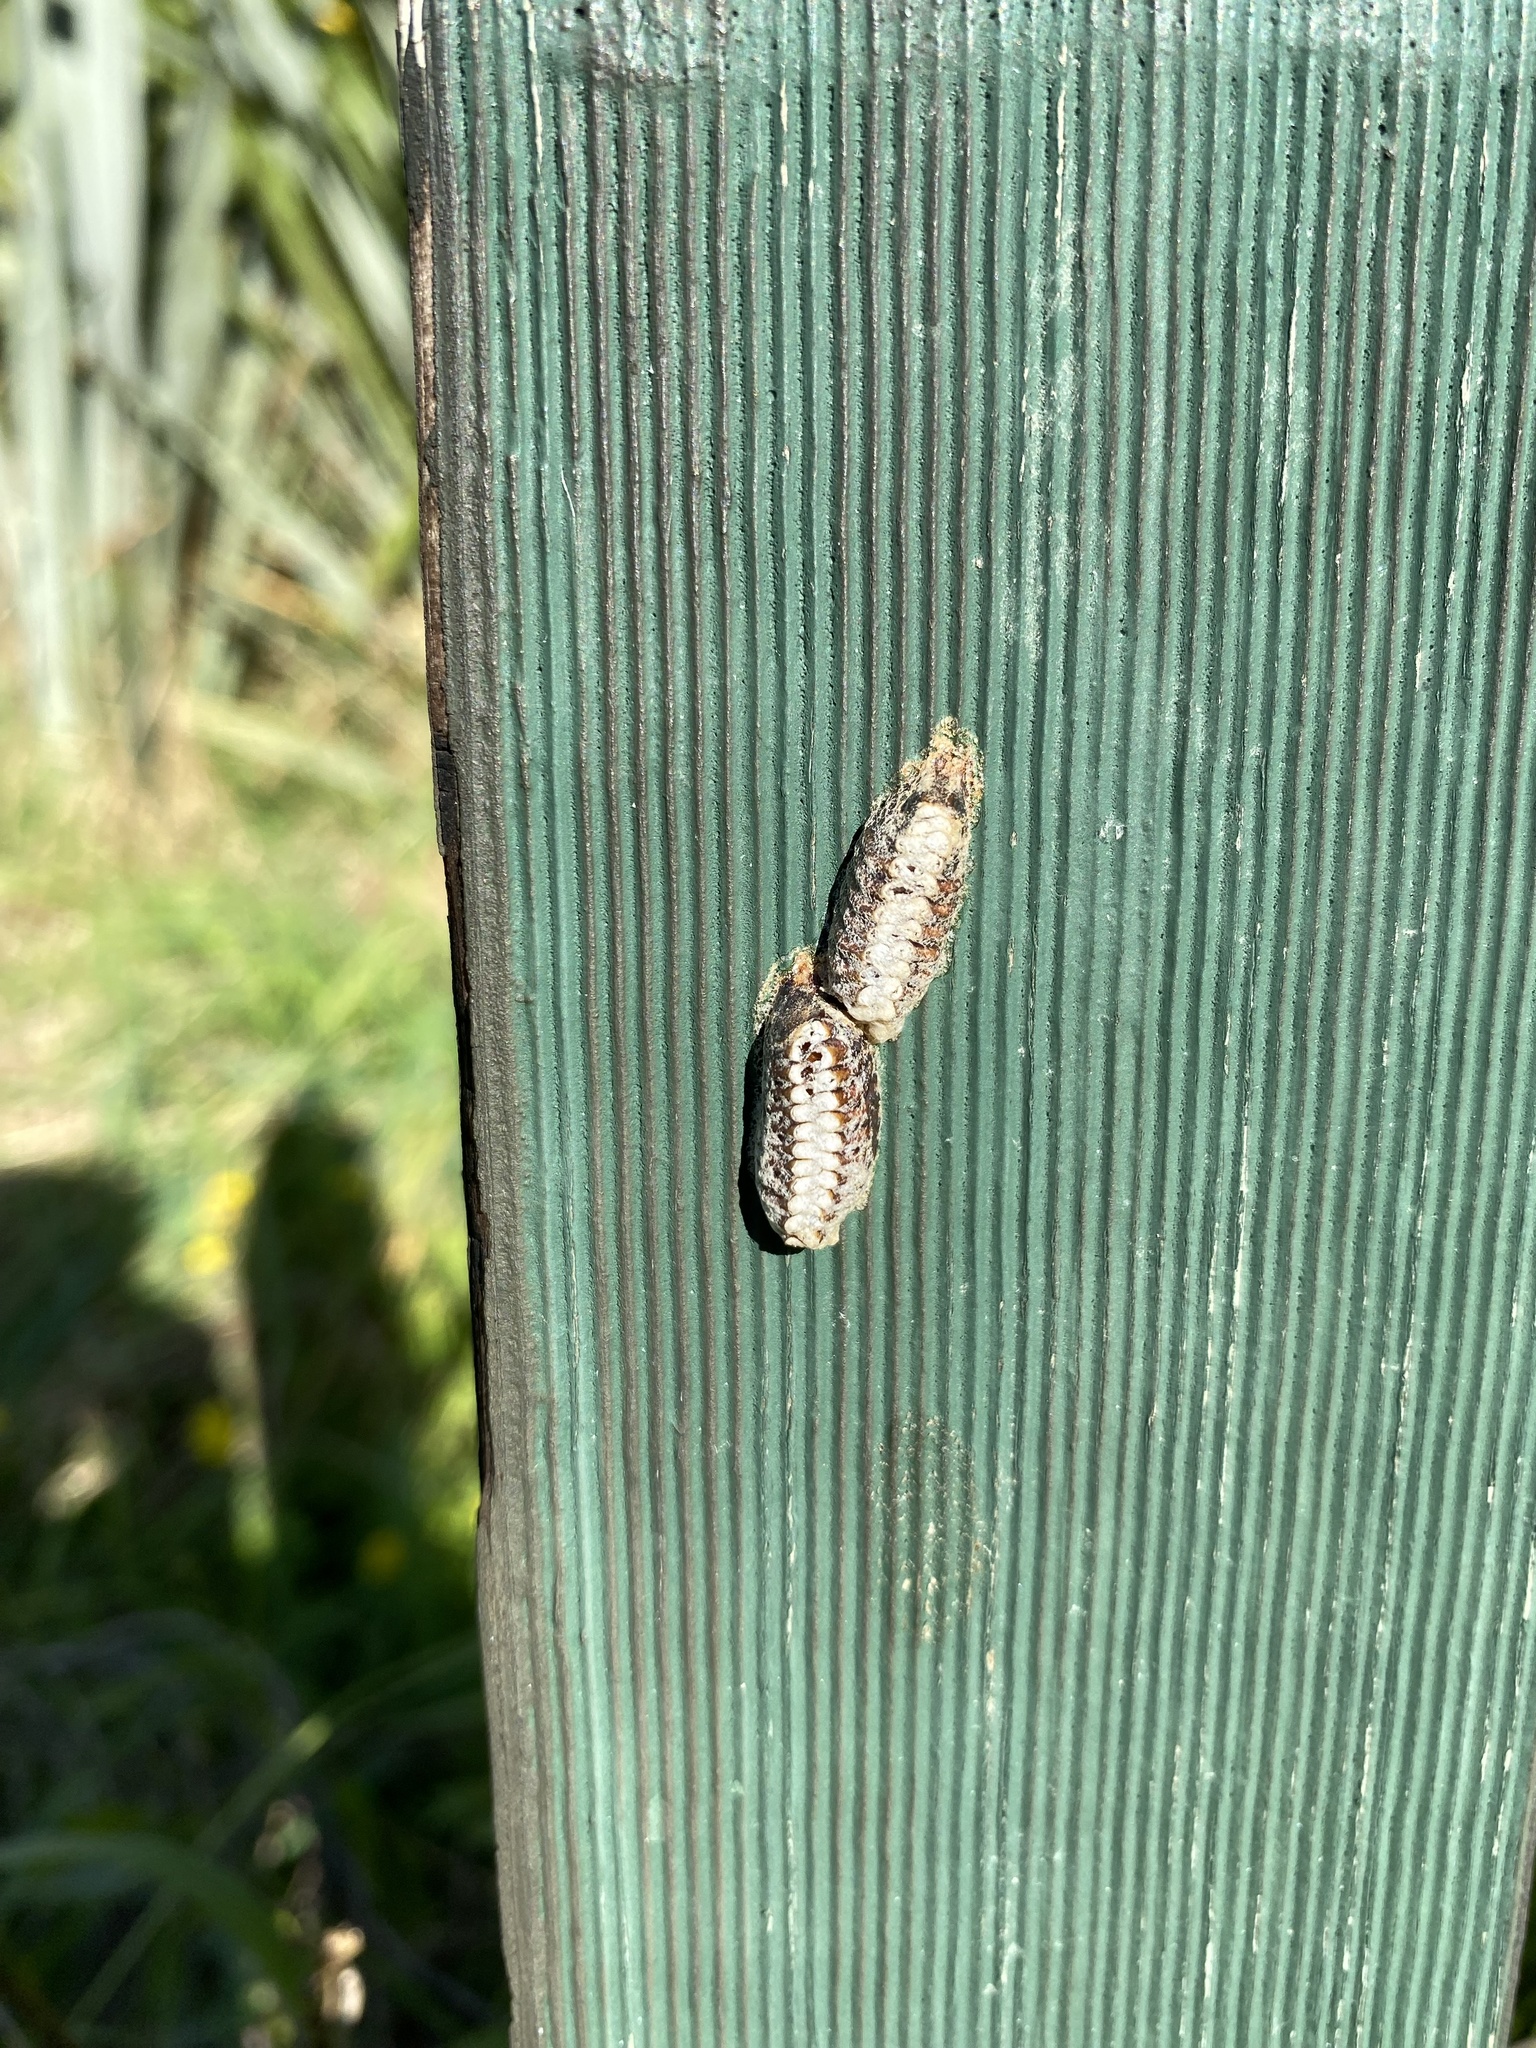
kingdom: Animalia
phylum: Arthropoda
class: Insecta
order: Mantodea
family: Mantidae
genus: Orthodera
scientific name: Orthodera novaezealandiae
